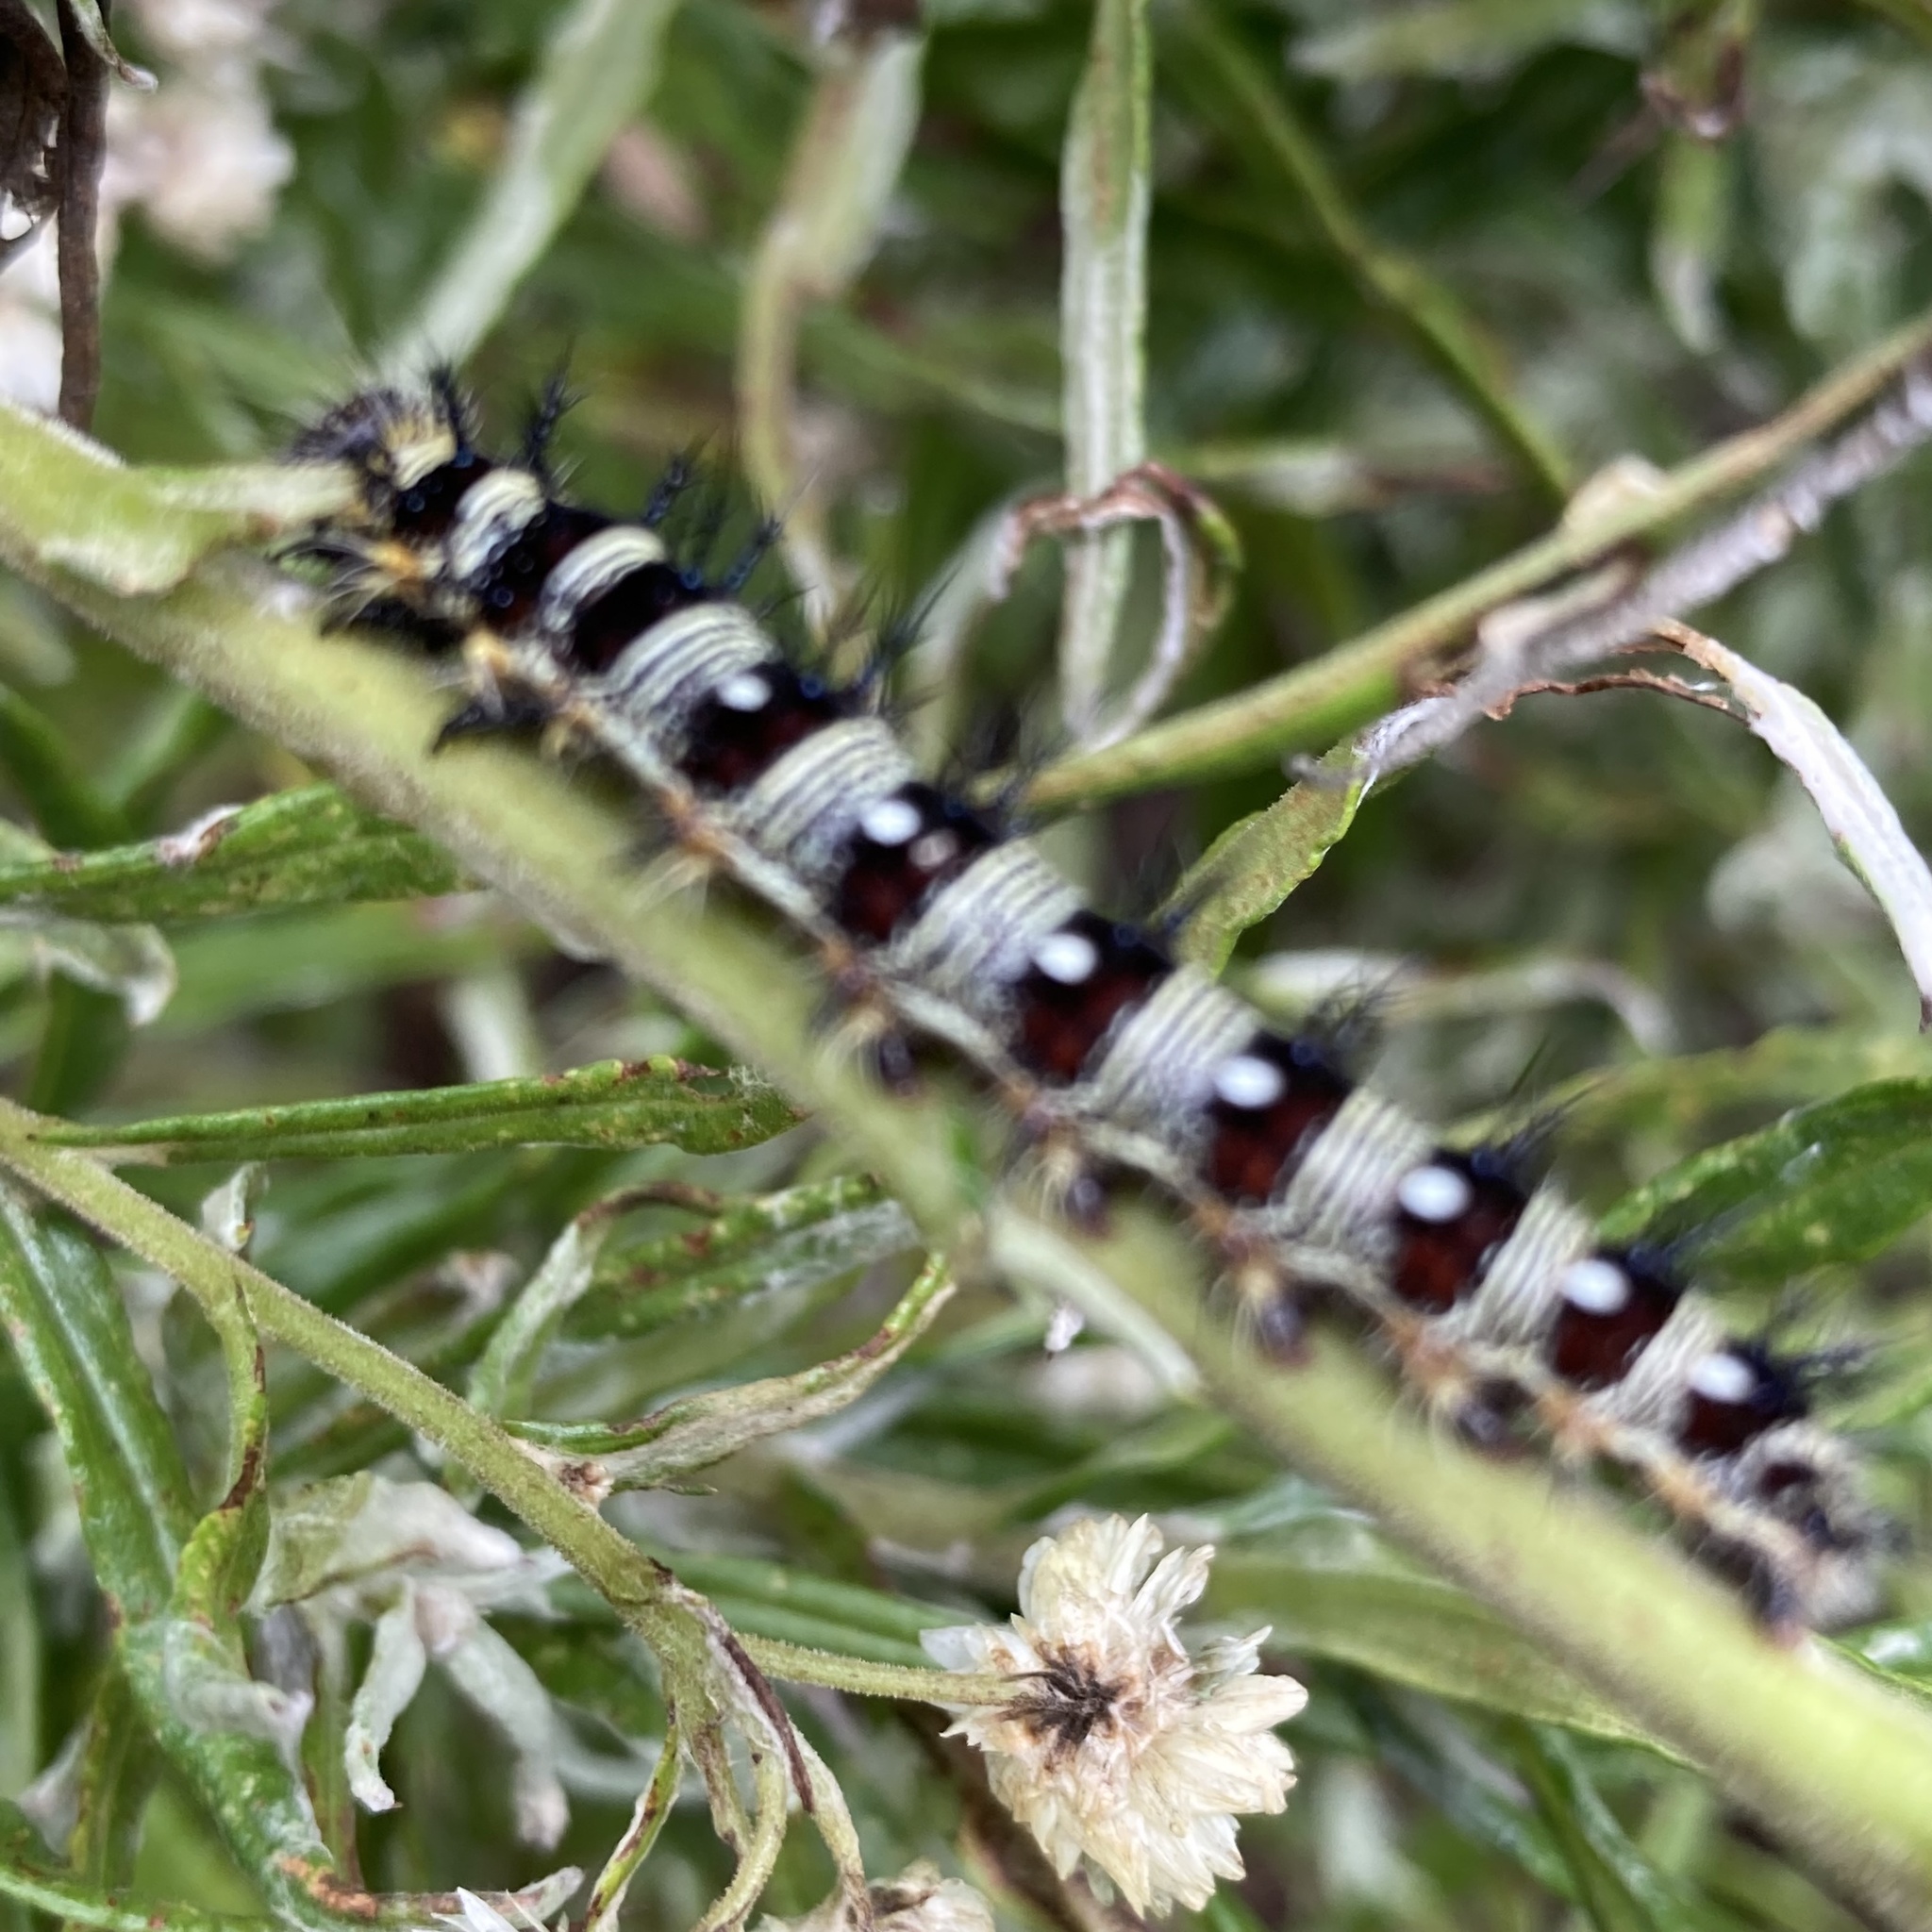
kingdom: Animalia
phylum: Arthropoda
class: Insecta
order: Lepidoptera
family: Nymphalidae
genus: Vanessa
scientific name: Vanessa virginiensis
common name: American lady
